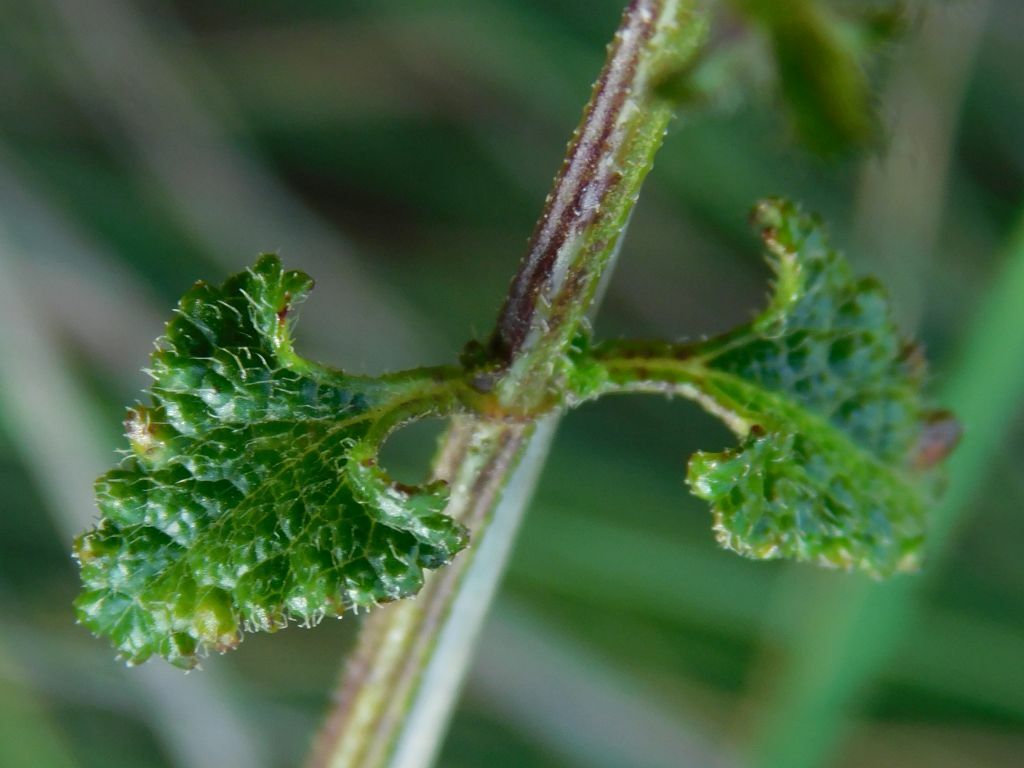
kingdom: Plantae
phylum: Tracheophyta
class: Magnoliopsida
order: Lamiales
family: Lamiaceae
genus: Stachys
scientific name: Stachys aethiopica
